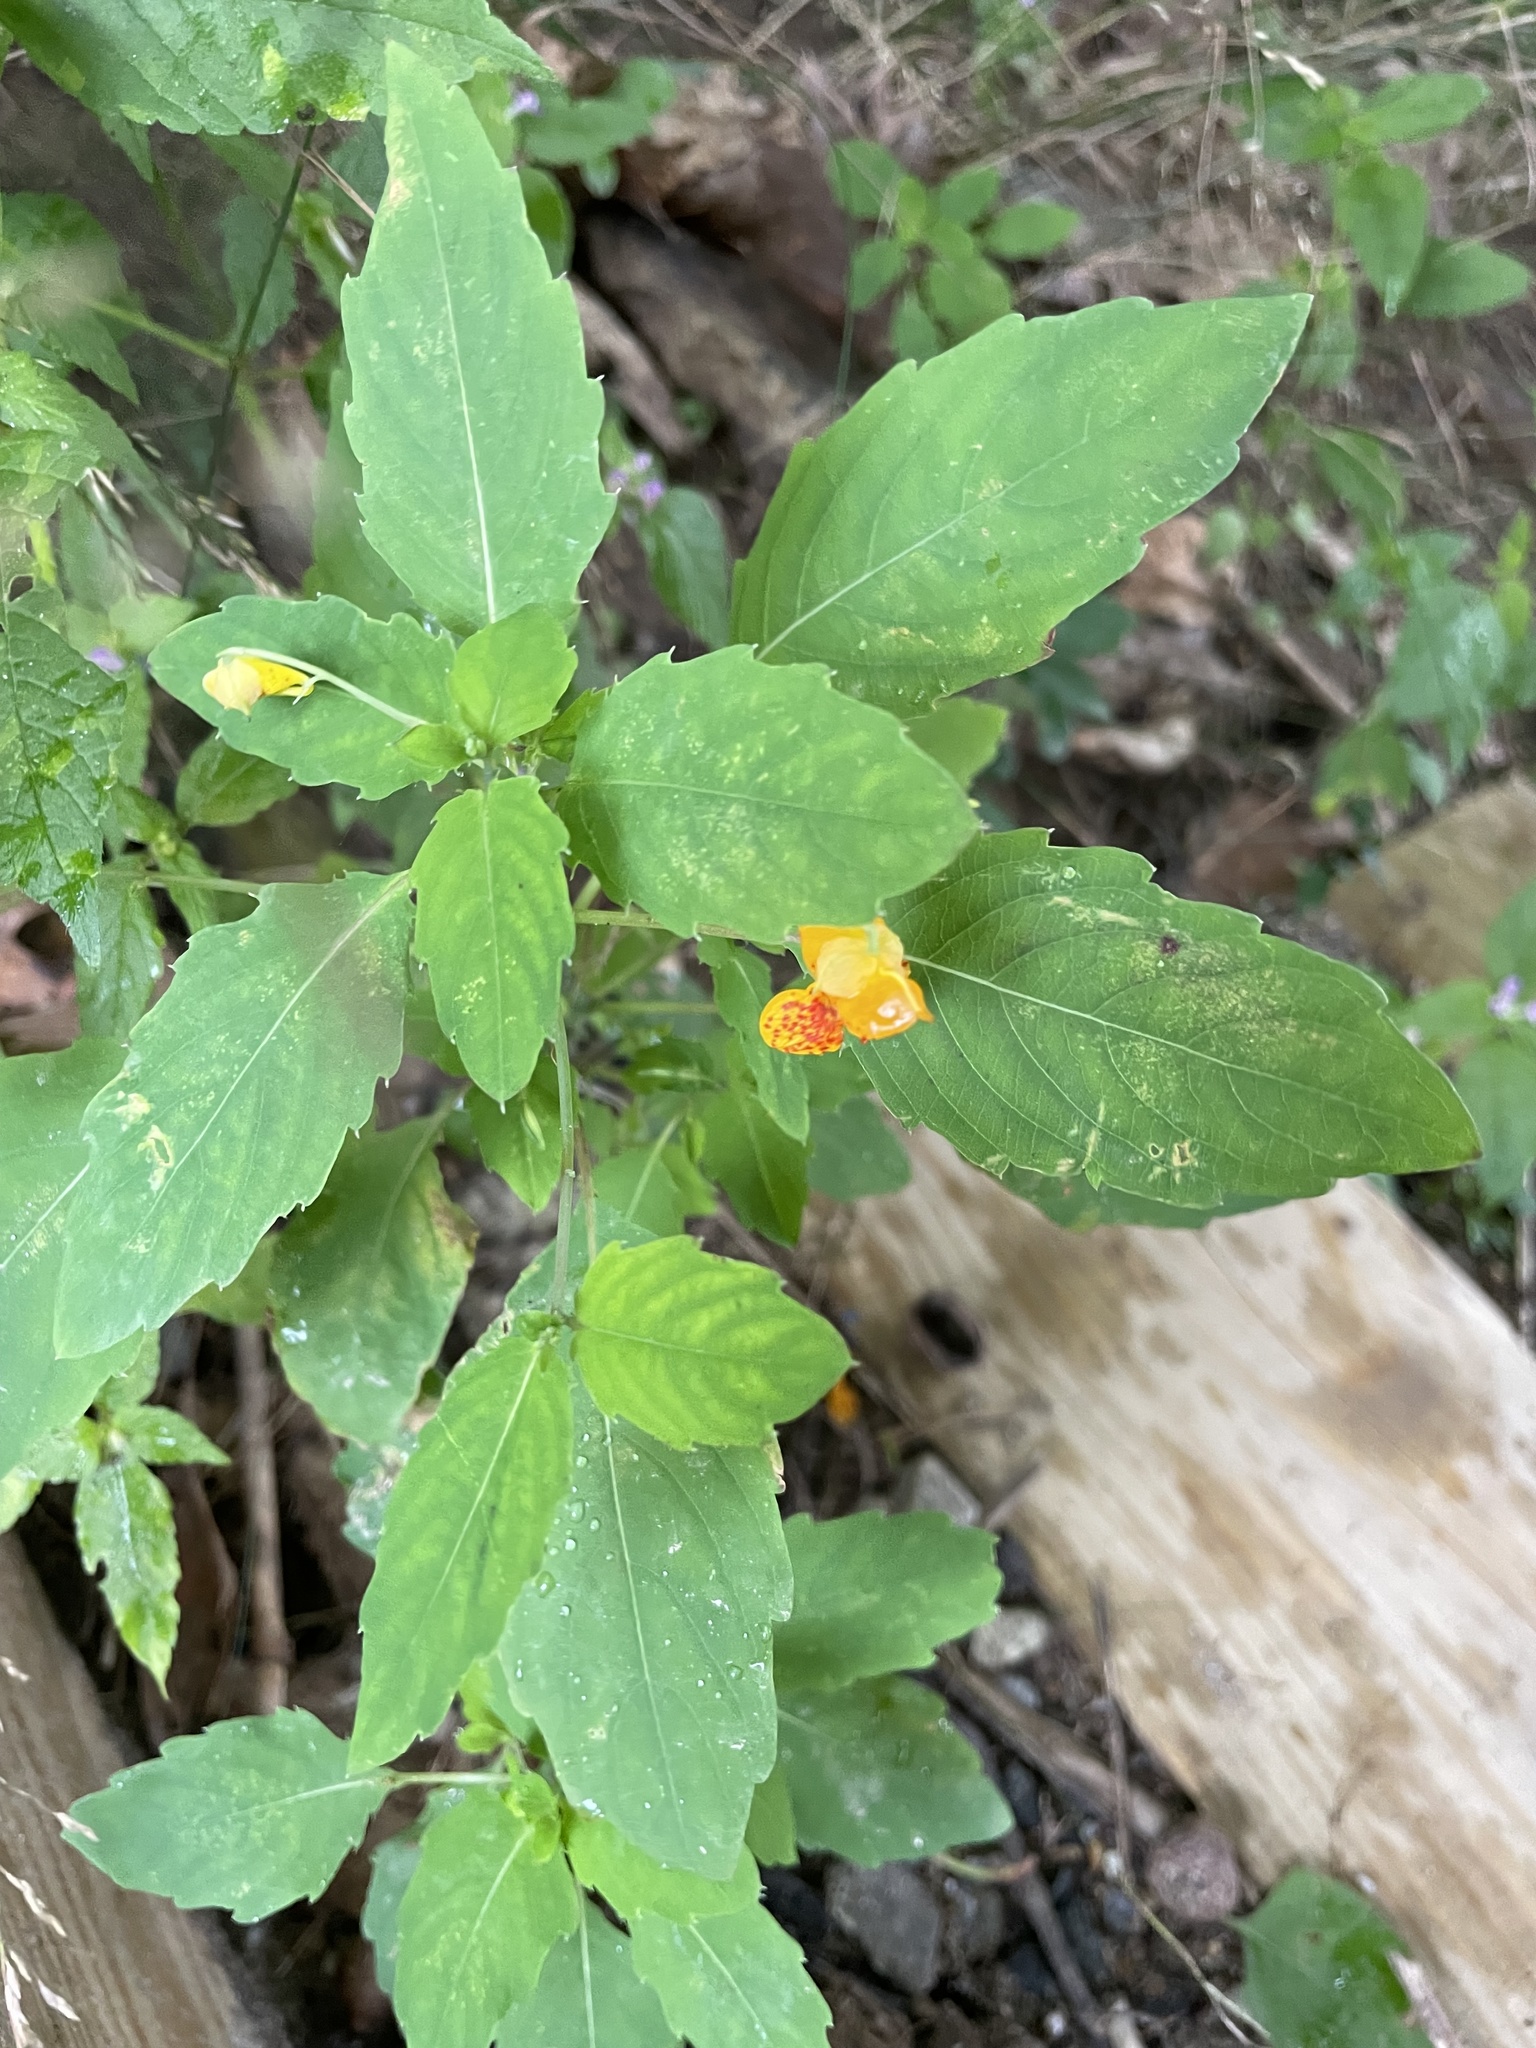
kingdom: Plantae
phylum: Tracheophyta
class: Magnoliopsida
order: Ericales
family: Balsaminaceae
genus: Impatiens
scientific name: Impatiens capensis
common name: Orange balsam
